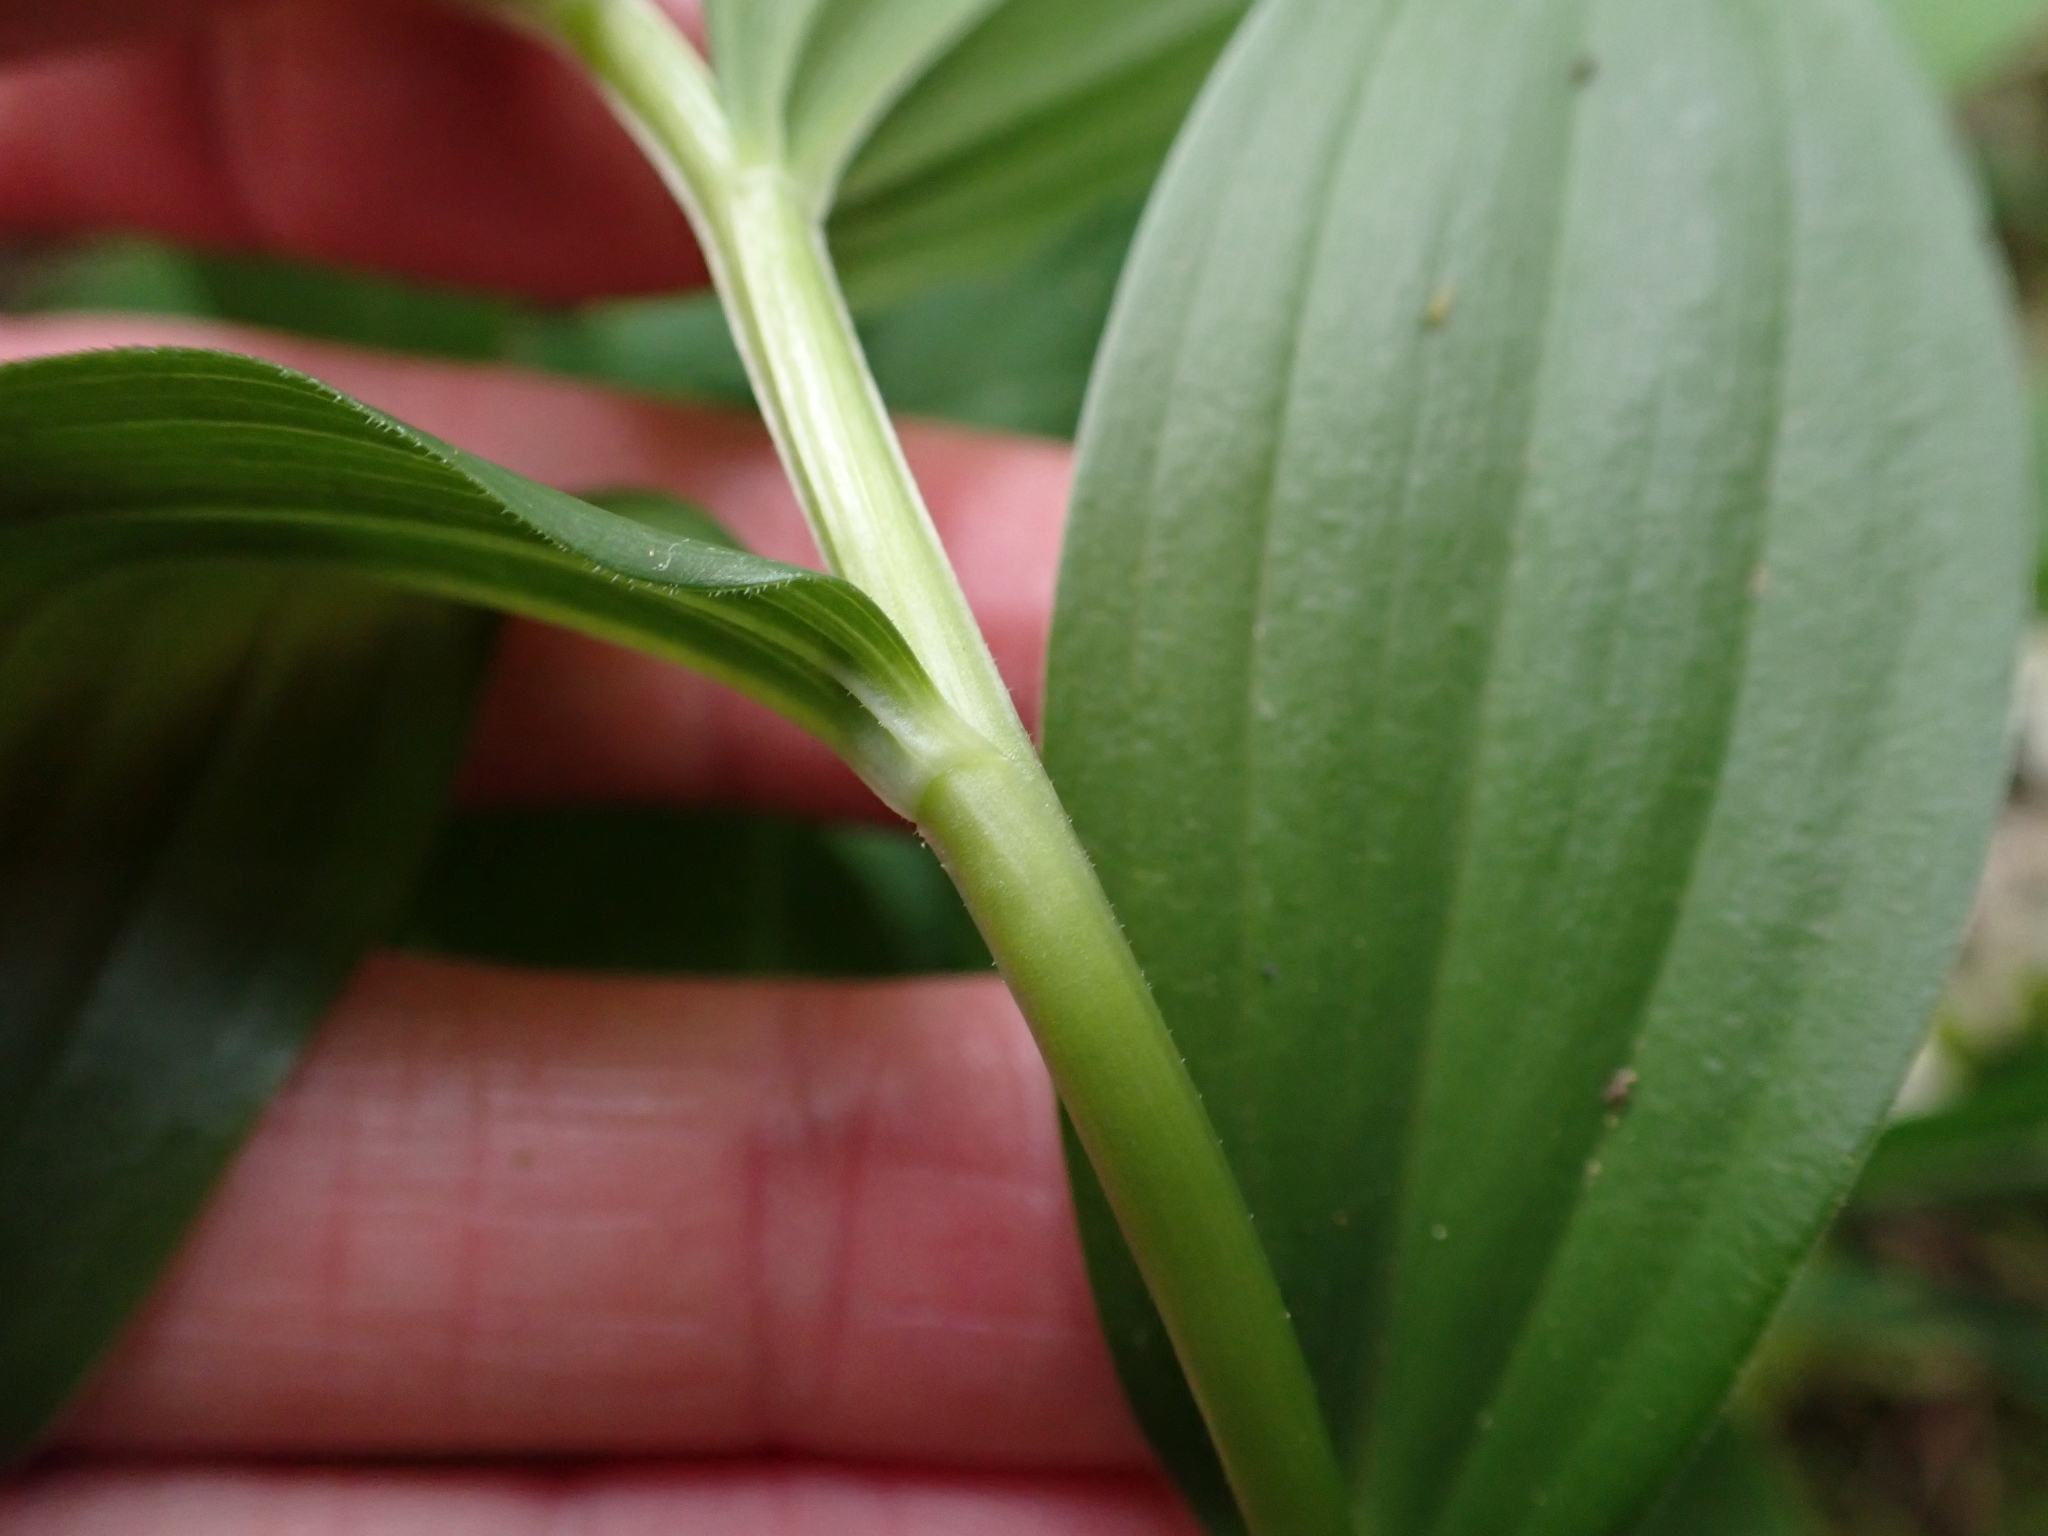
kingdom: Plantae
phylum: Tracheophyta
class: Liliopsida
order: Asparagales
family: Asparagaceae
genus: Maianthemum
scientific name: Maianthemum racemosum
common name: False spikenard
